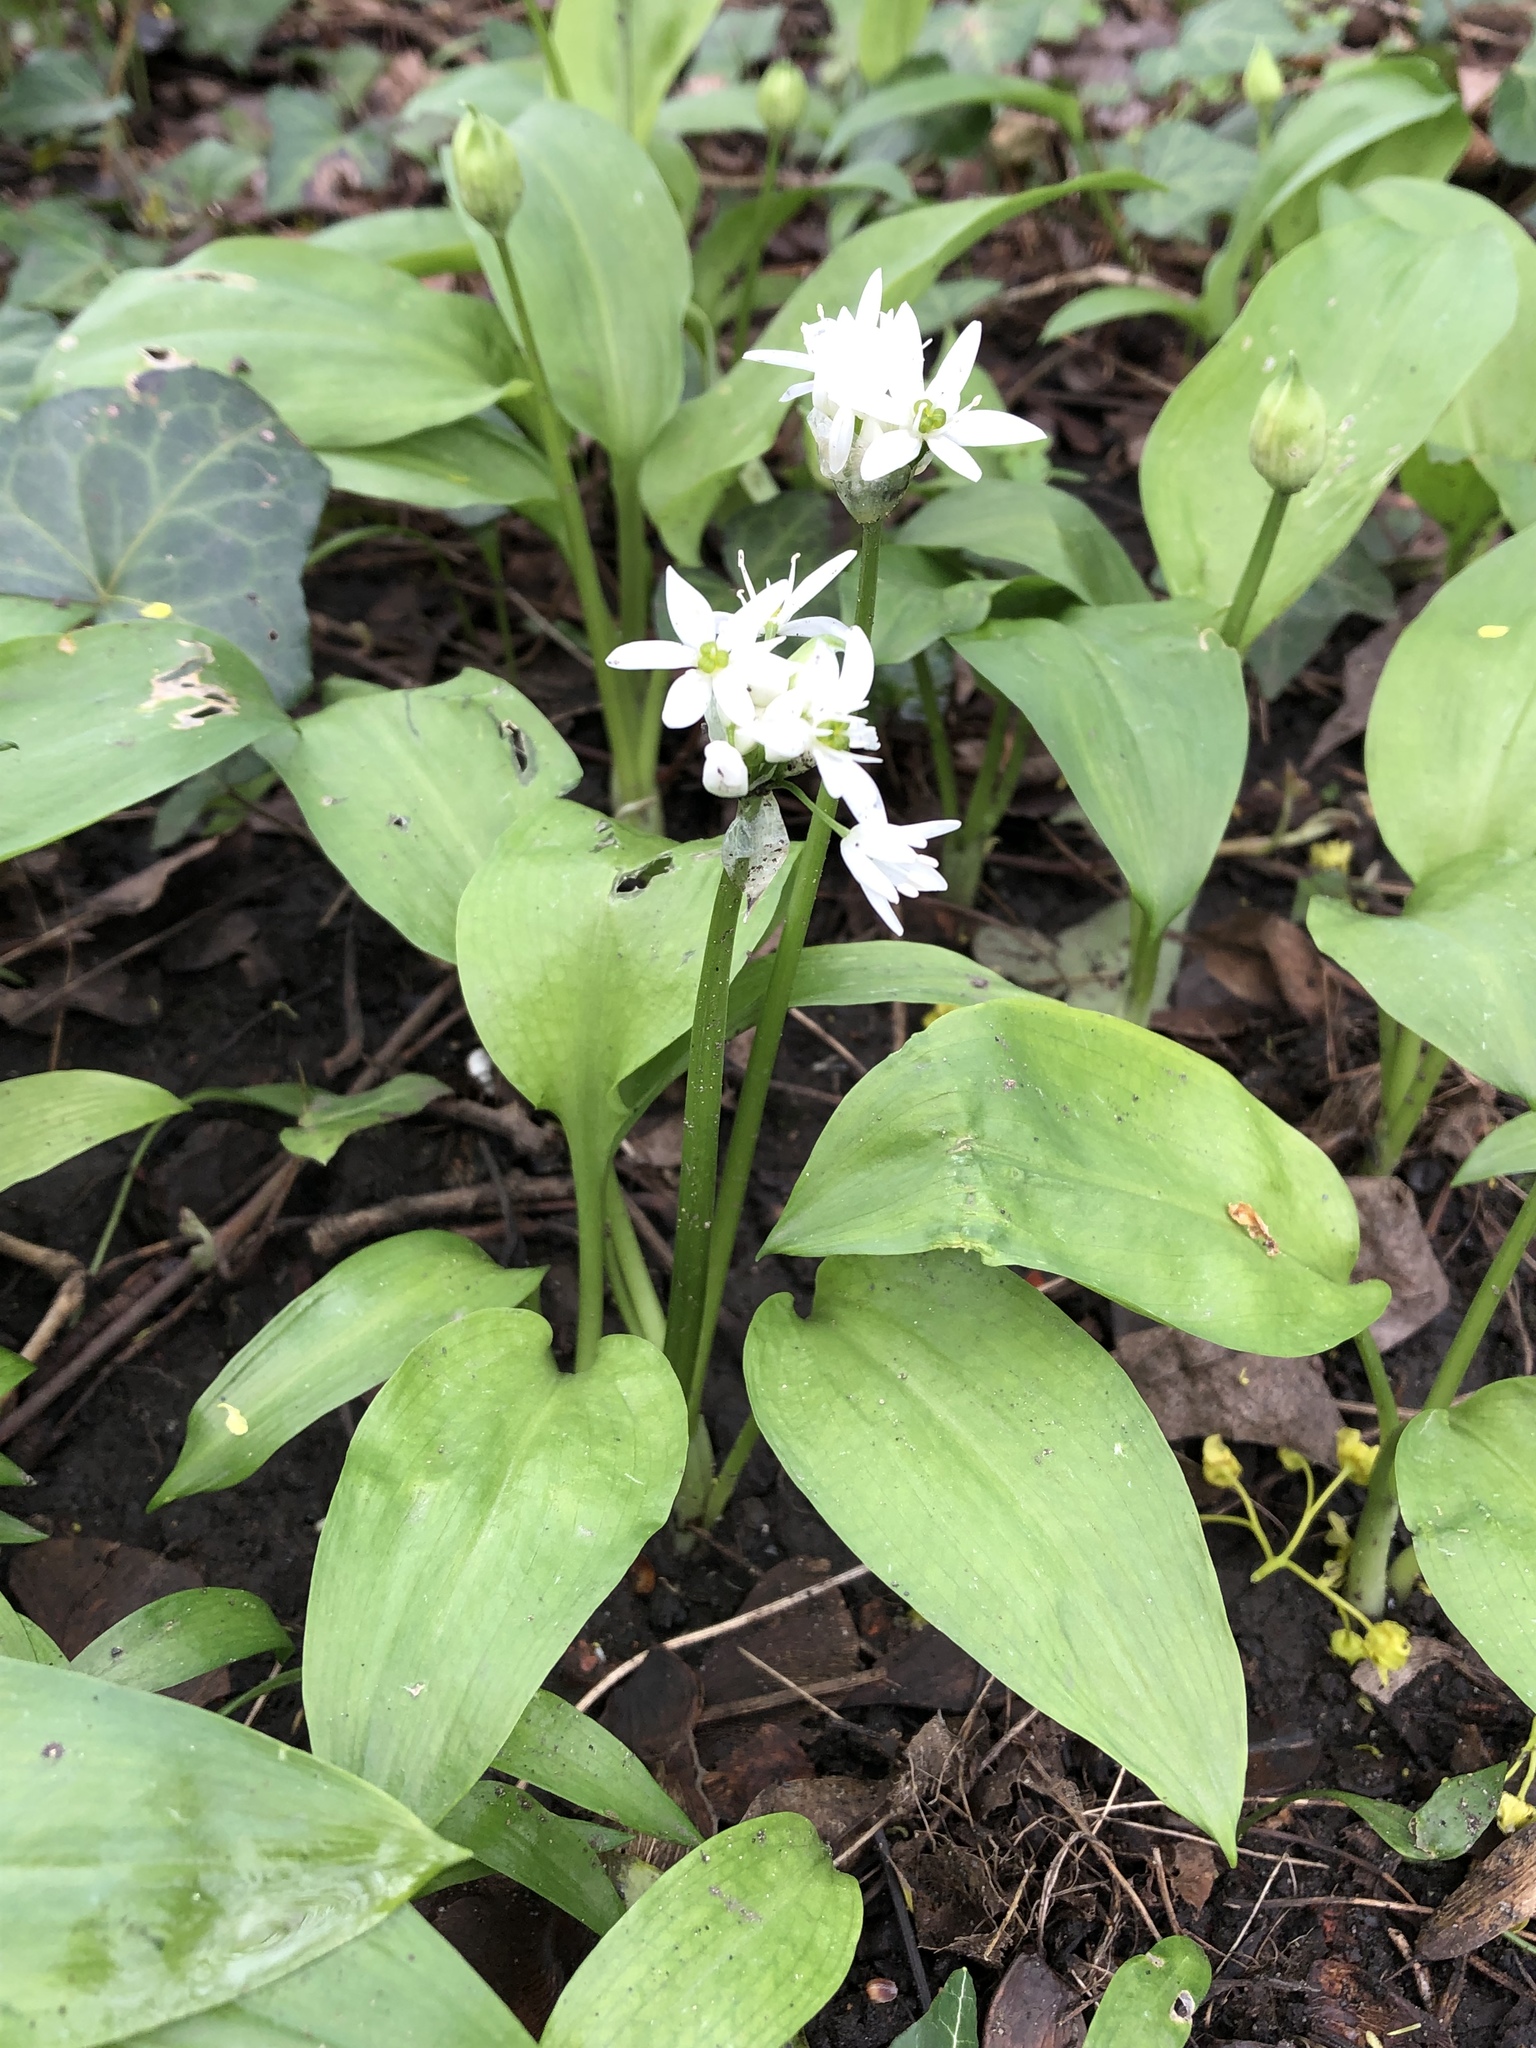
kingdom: Plantae
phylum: Tracheophyta
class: Liliopsida
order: Asparagales
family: Amaryllidaceae
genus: Allium
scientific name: Allium ursinum
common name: Ramsons
